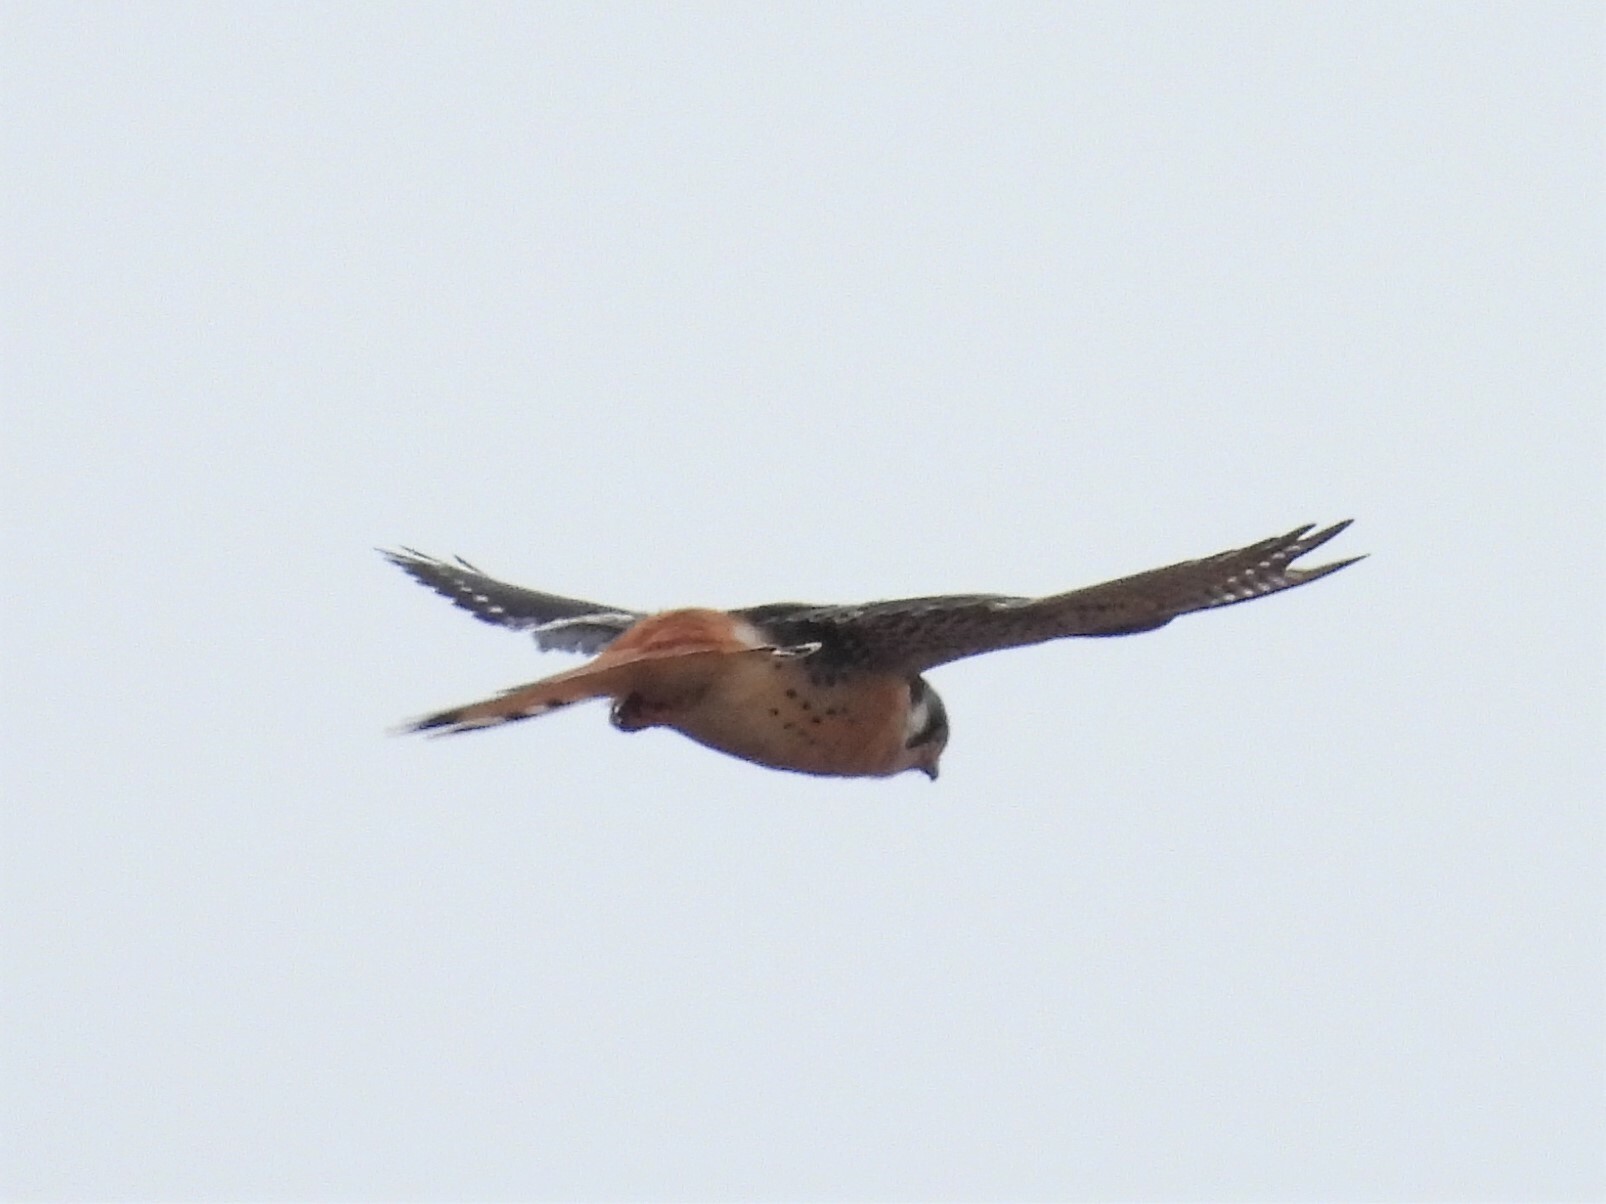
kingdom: Animalia
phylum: Chordata
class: Aves
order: Falconiformes
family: Falconidae
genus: Falco
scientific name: Falco sparverius
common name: American kestrel
